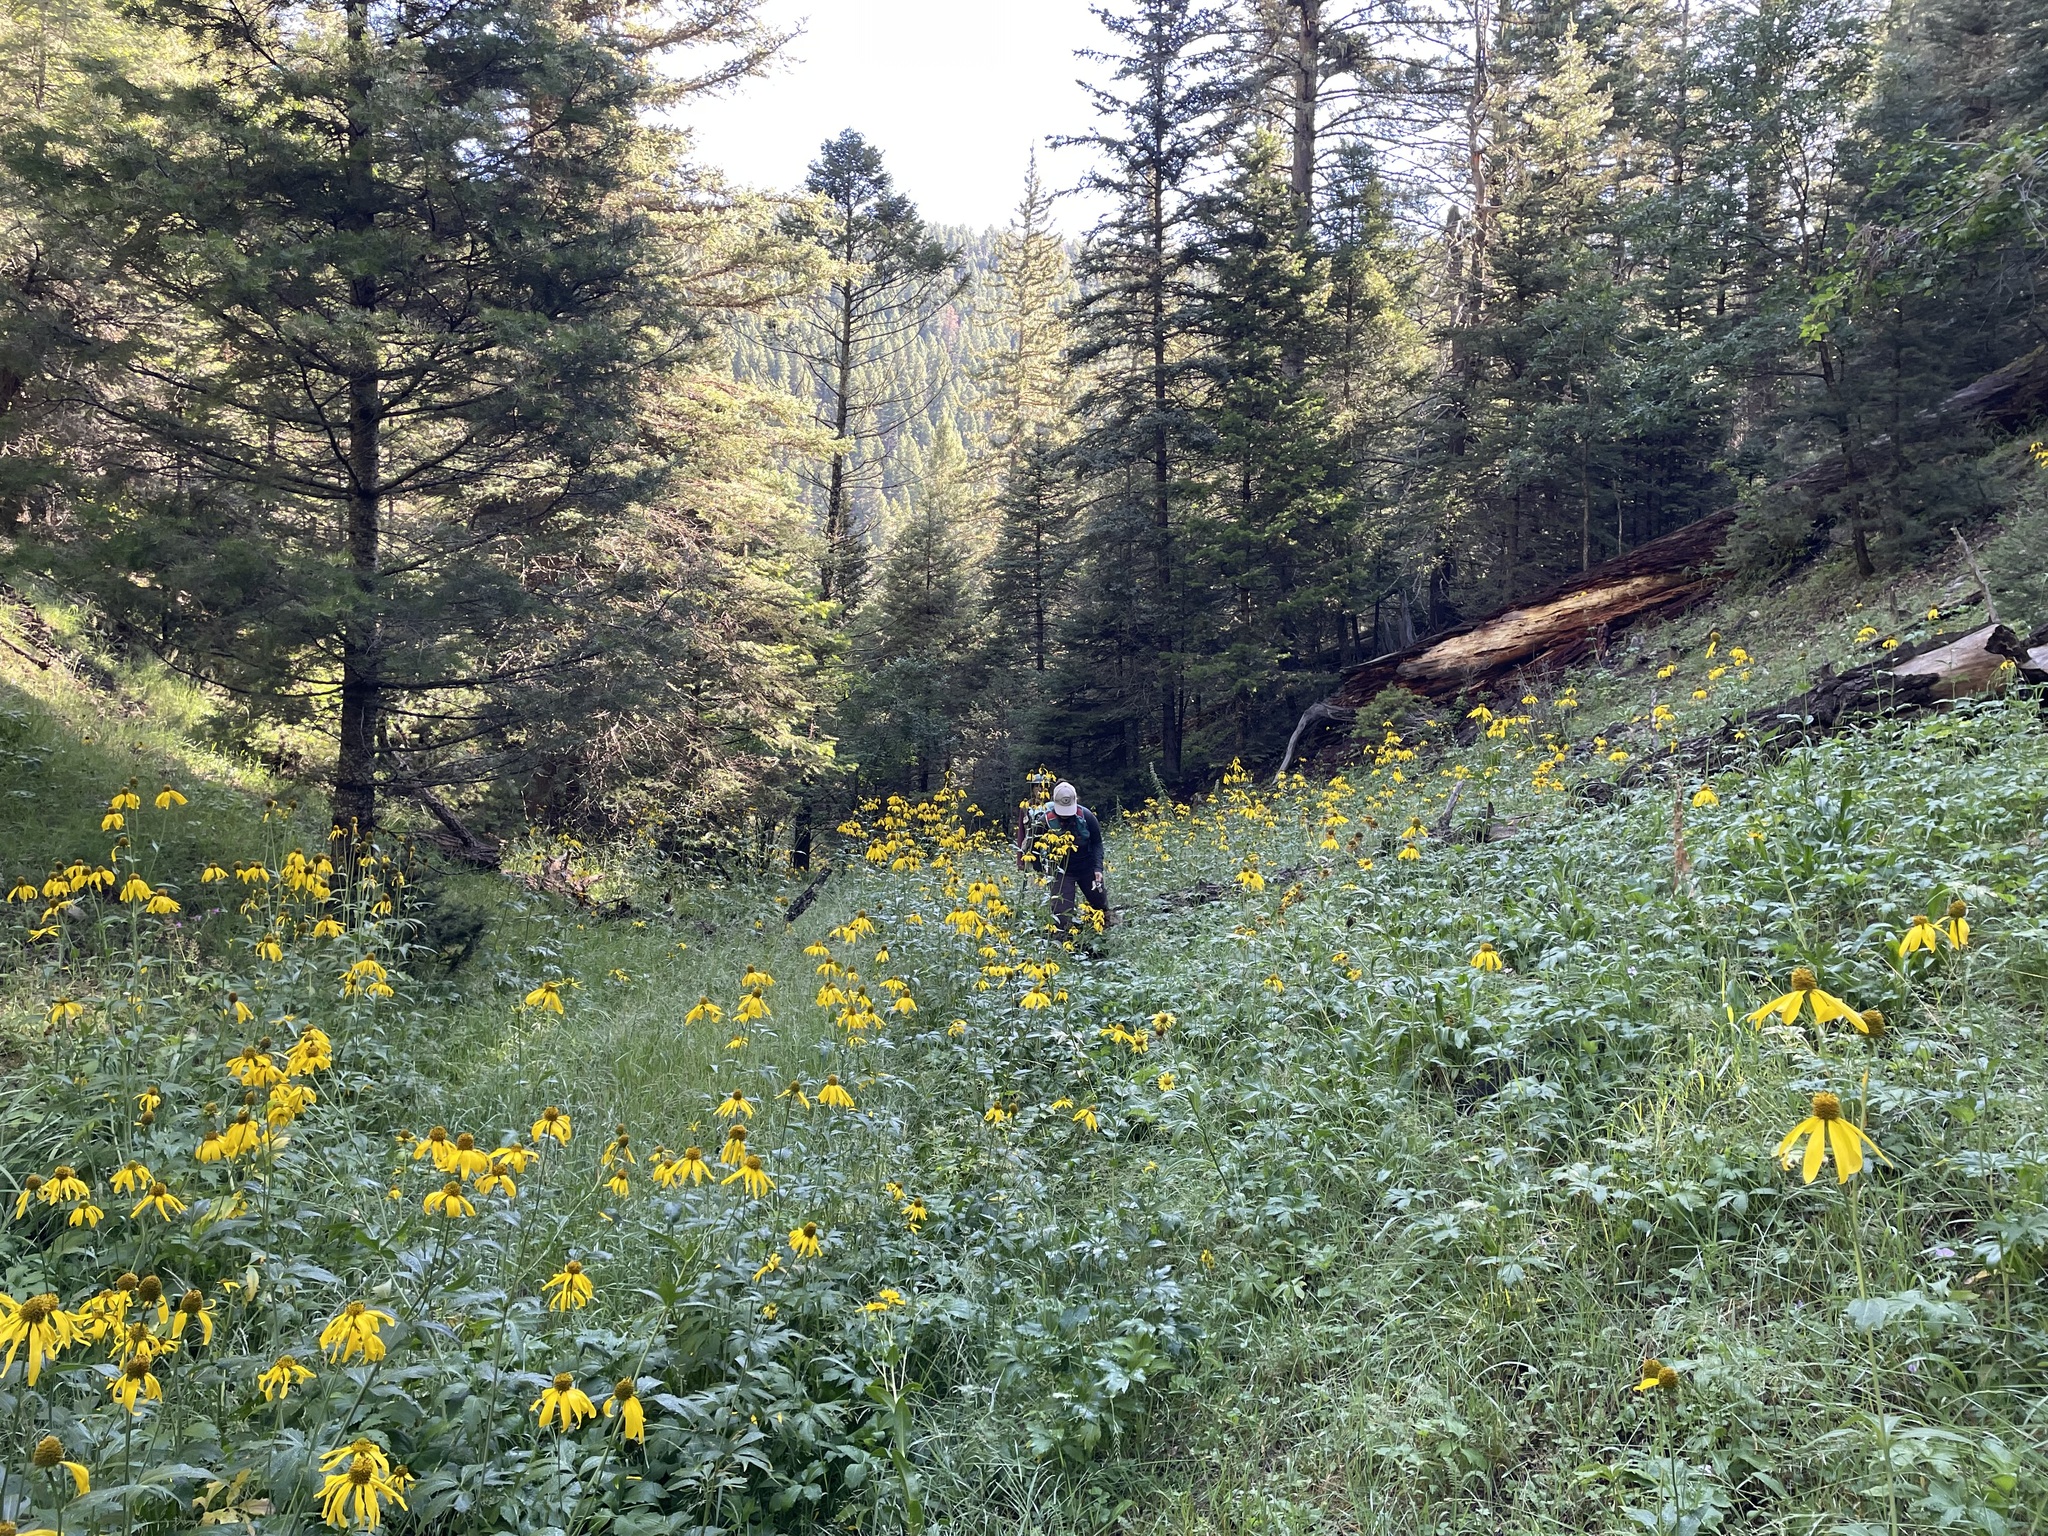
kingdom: Plantae
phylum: Tracheophyta
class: Magnoliopsida
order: Asterales
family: Asteraceae
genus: Rudbeckia
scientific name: Rudbeckia laciniata
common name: Coneflower
